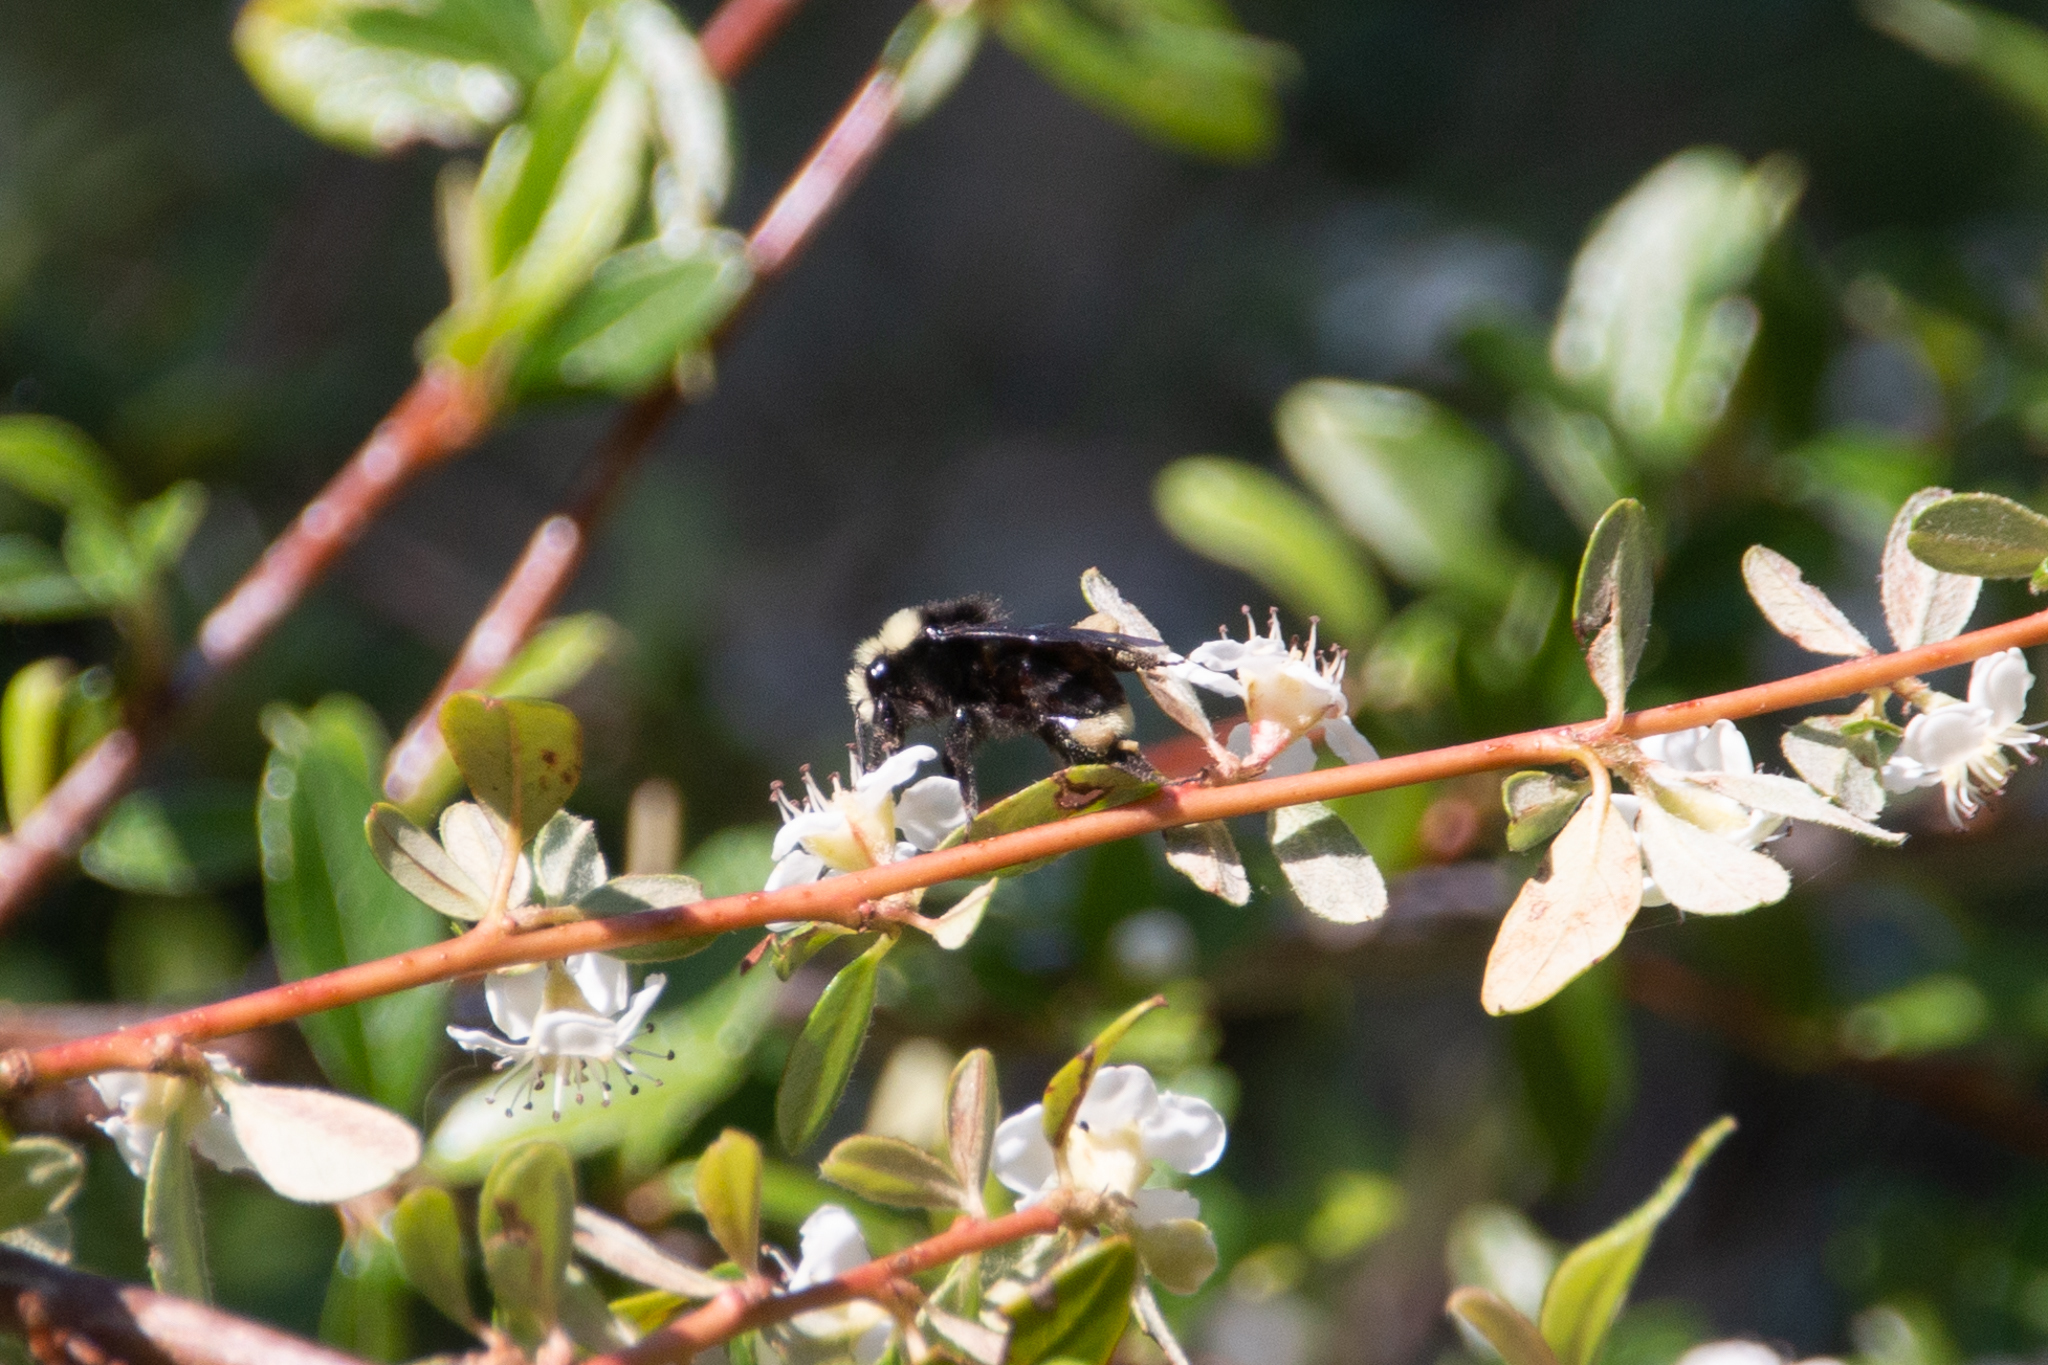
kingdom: Animalia
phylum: Arthropoda
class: Insecta
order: Hymenoptera
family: Apidae
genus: Bombus
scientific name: Bombus vosnesenskii
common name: Vosnesensky bumble bee
